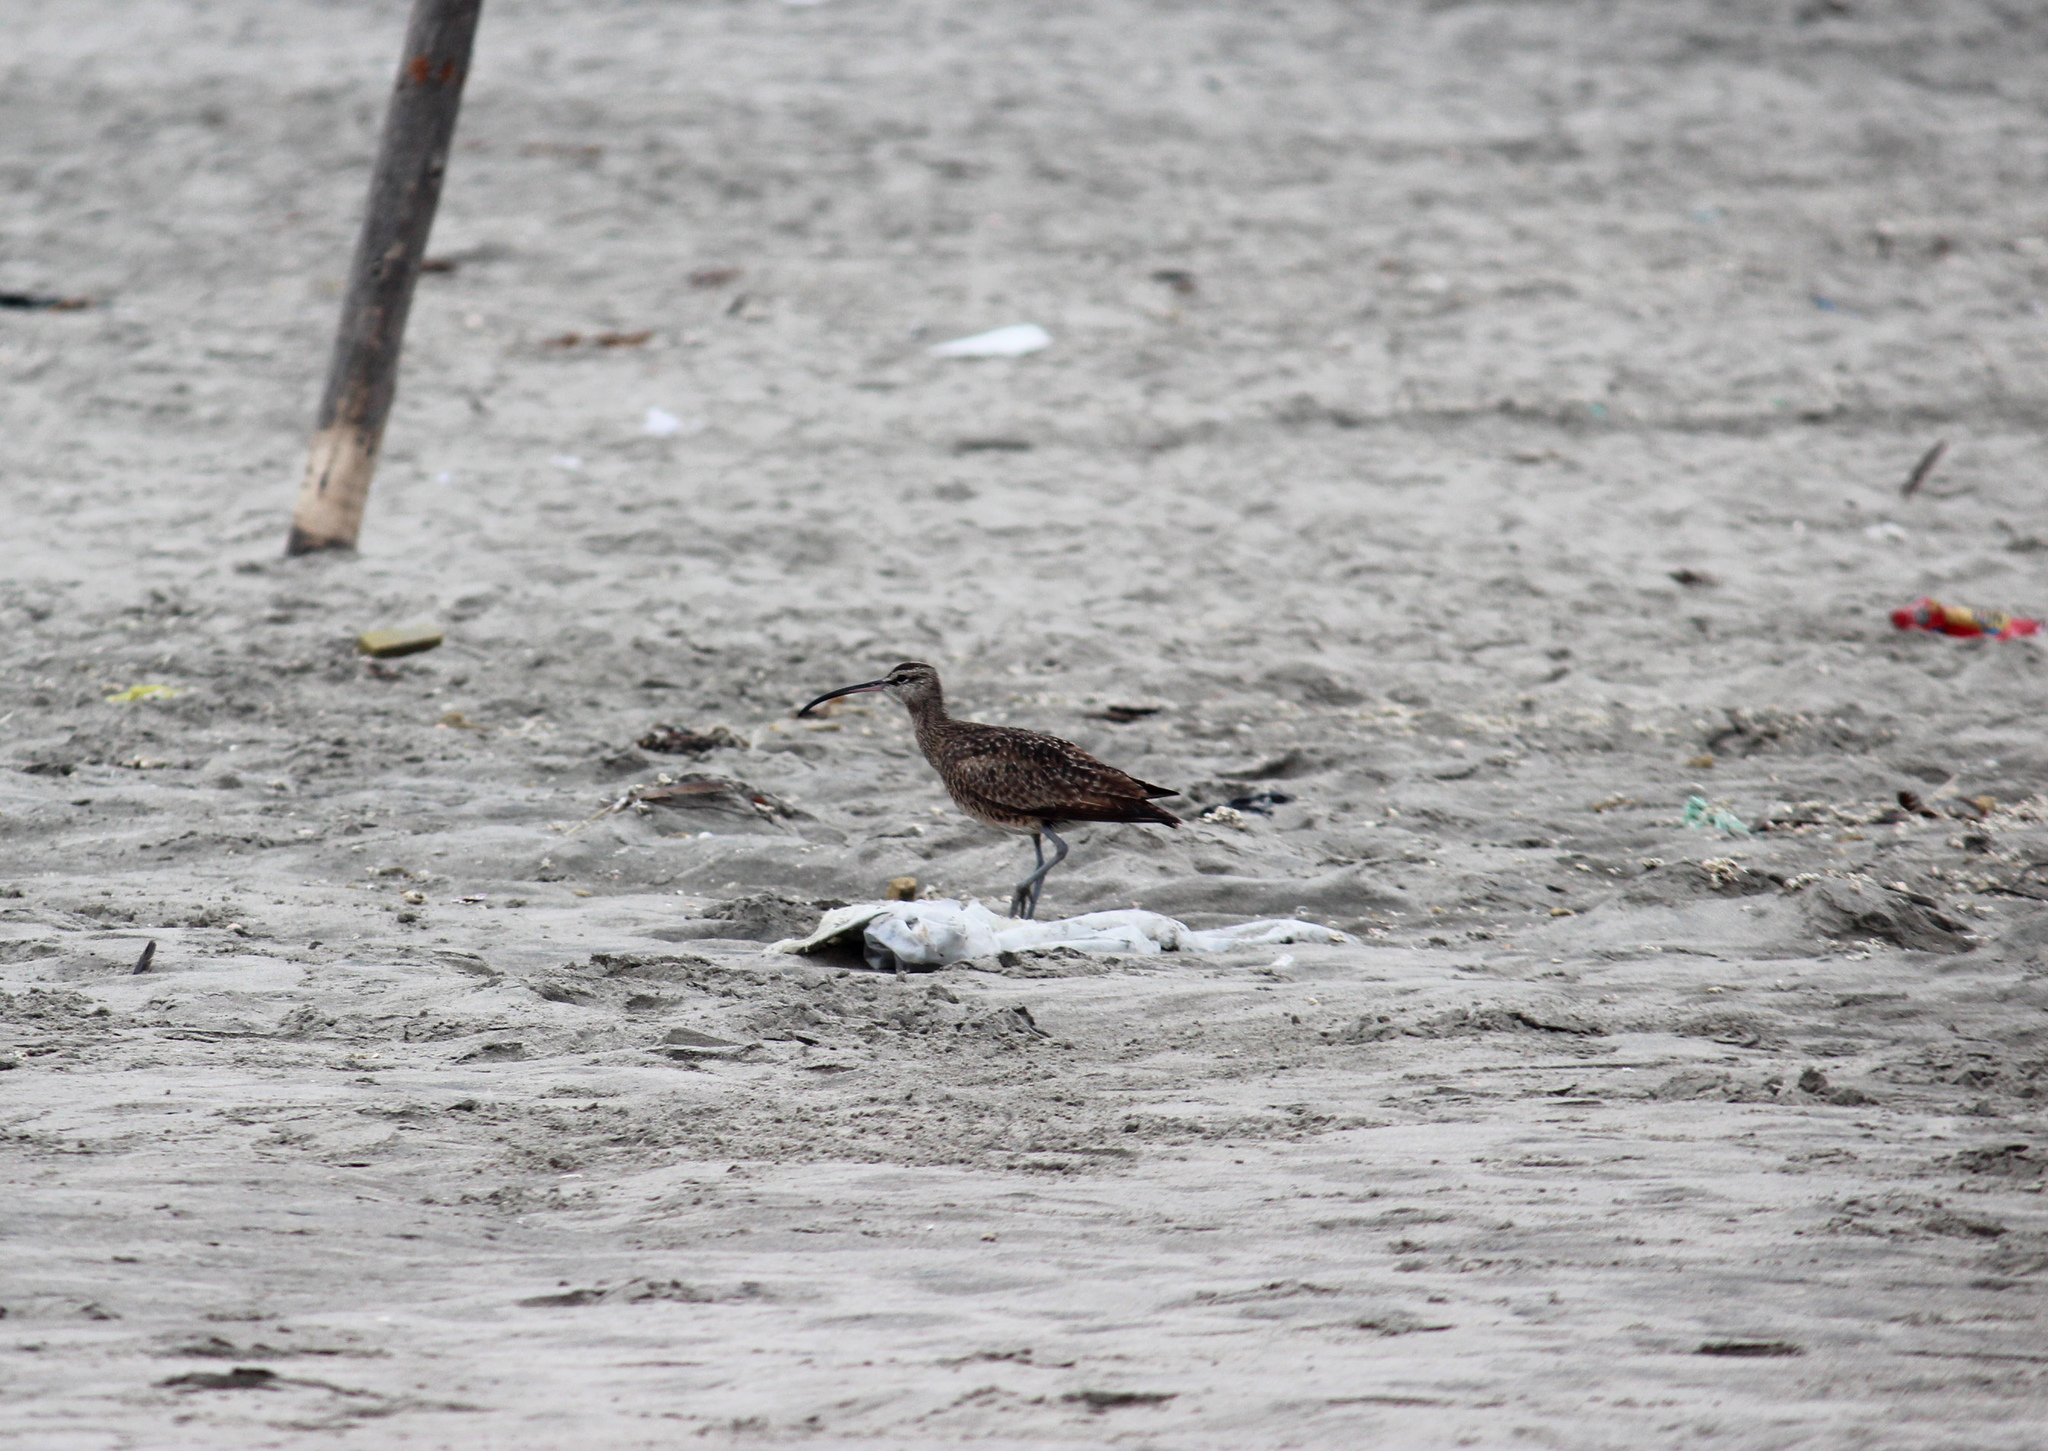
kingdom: Animalia
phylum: Chordata
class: Aves
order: Charadriiformes
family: Scolopacidae
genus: Numenius
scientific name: Numenius phaeopus
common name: Whimbrel
